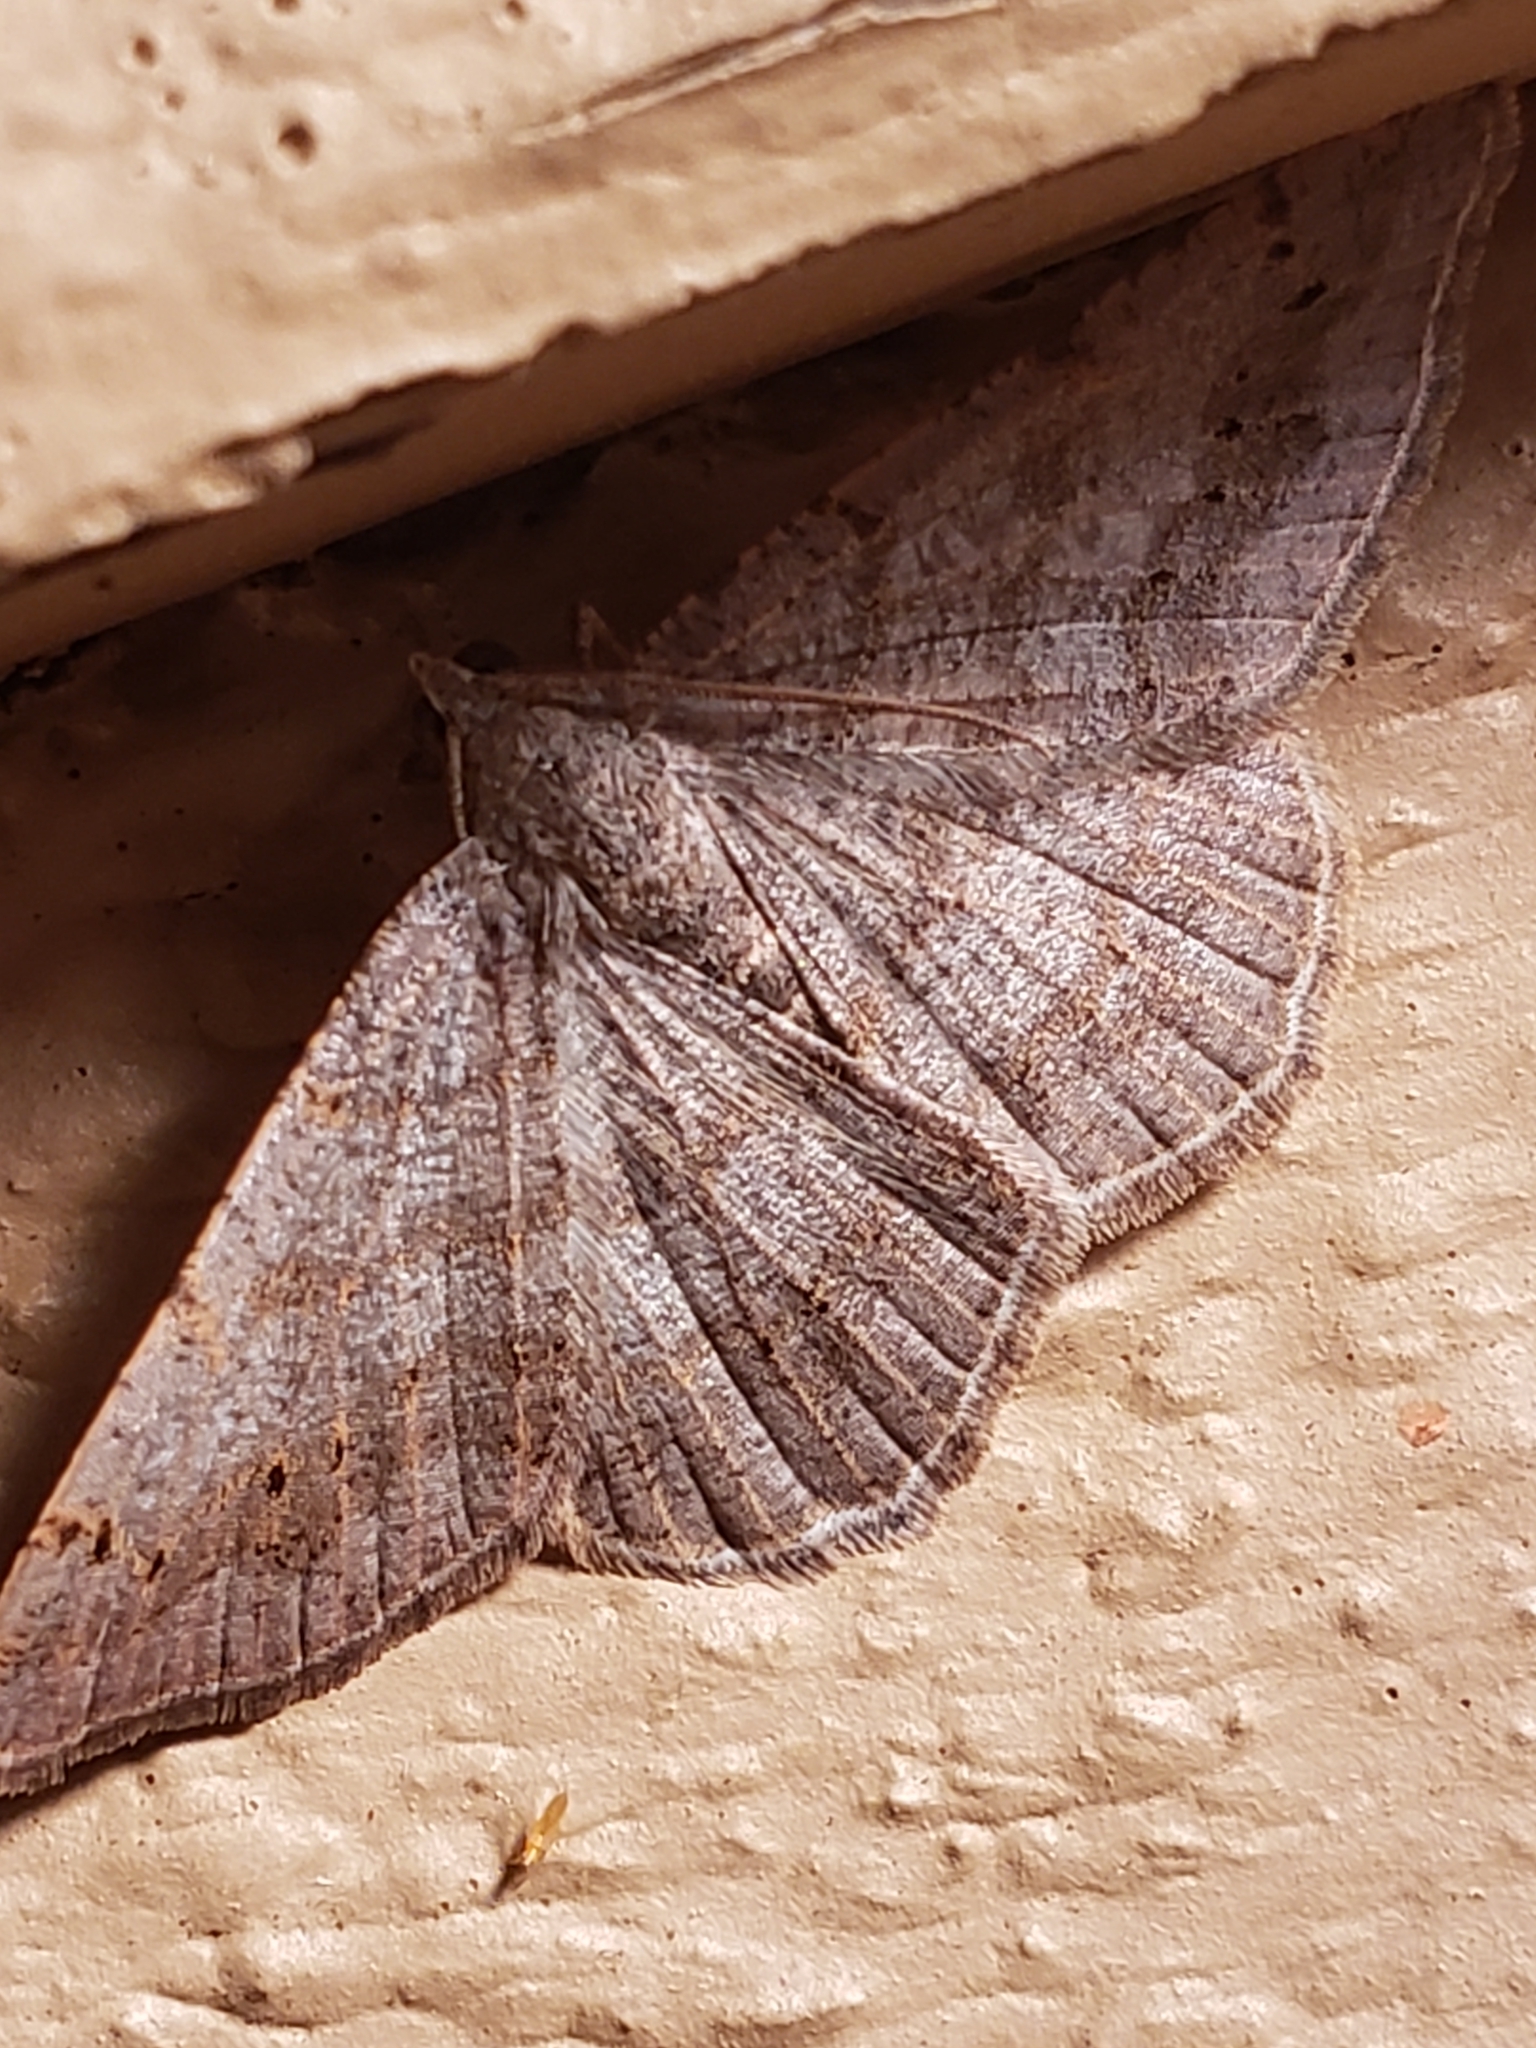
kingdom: Animalia
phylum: Arthropoda
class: Insecta
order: Lepidoptera
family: Geometridae
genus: Digrammia
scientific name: Digrammia ocellinata
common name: Faint-spotted angle
